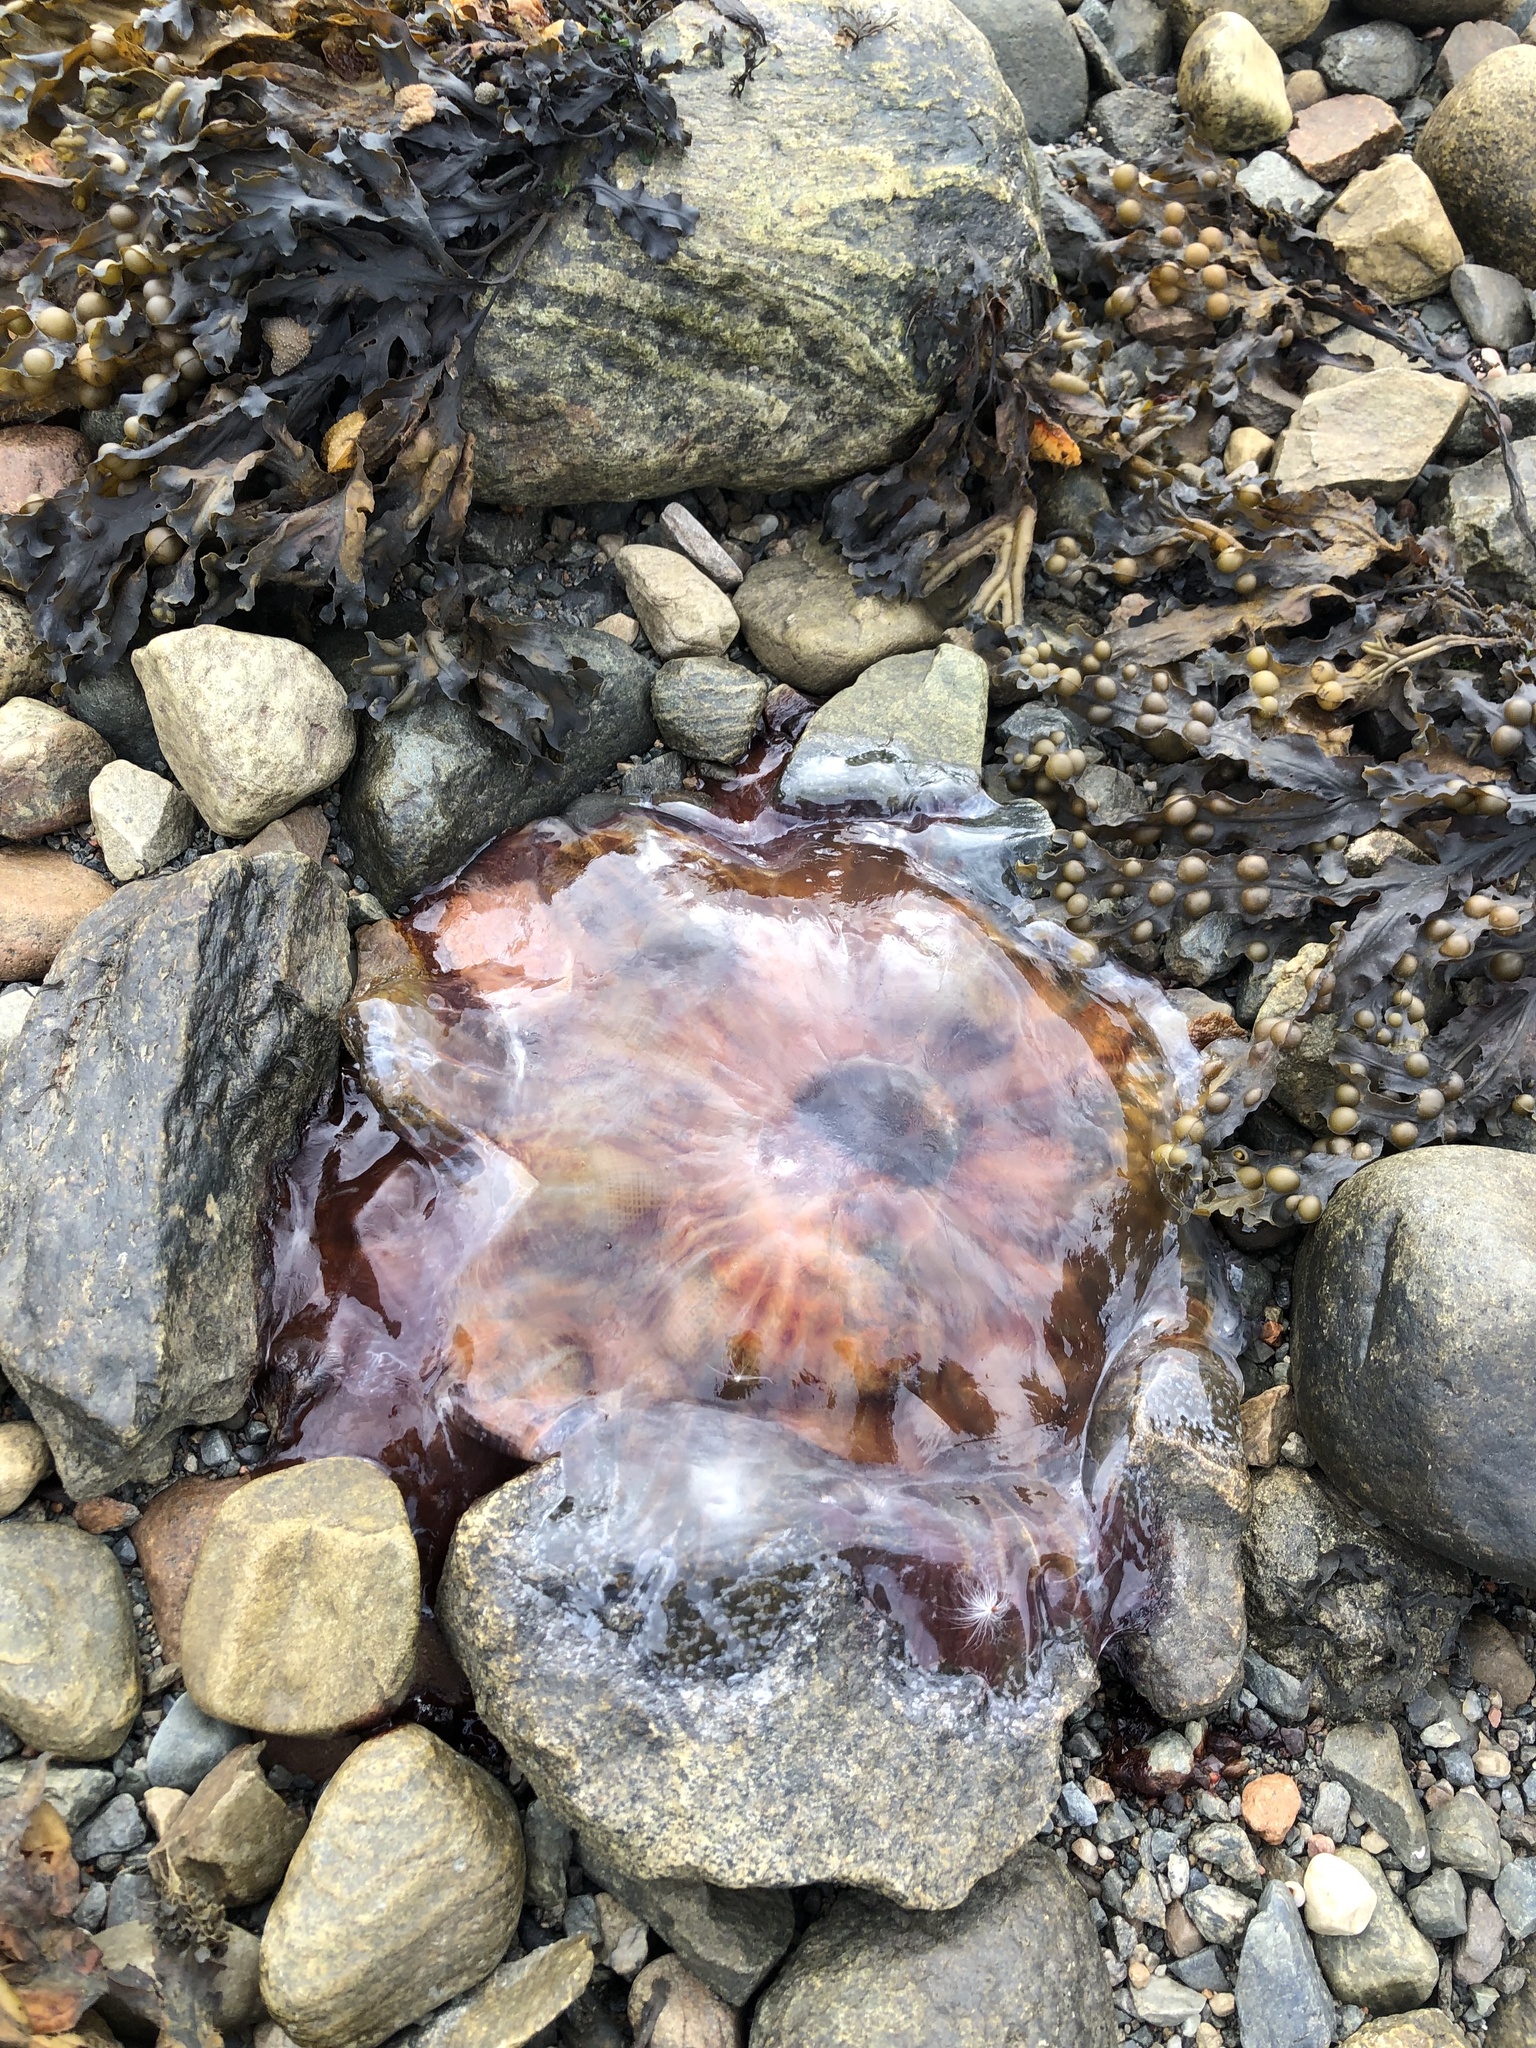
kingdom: Animalia
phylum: Cnidaria
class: Scyphozoa
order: Semaeostomeae
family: Cyaneidae
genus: Cyanea
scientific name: Cyanea capillata
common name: Lion's mane jellyfish
